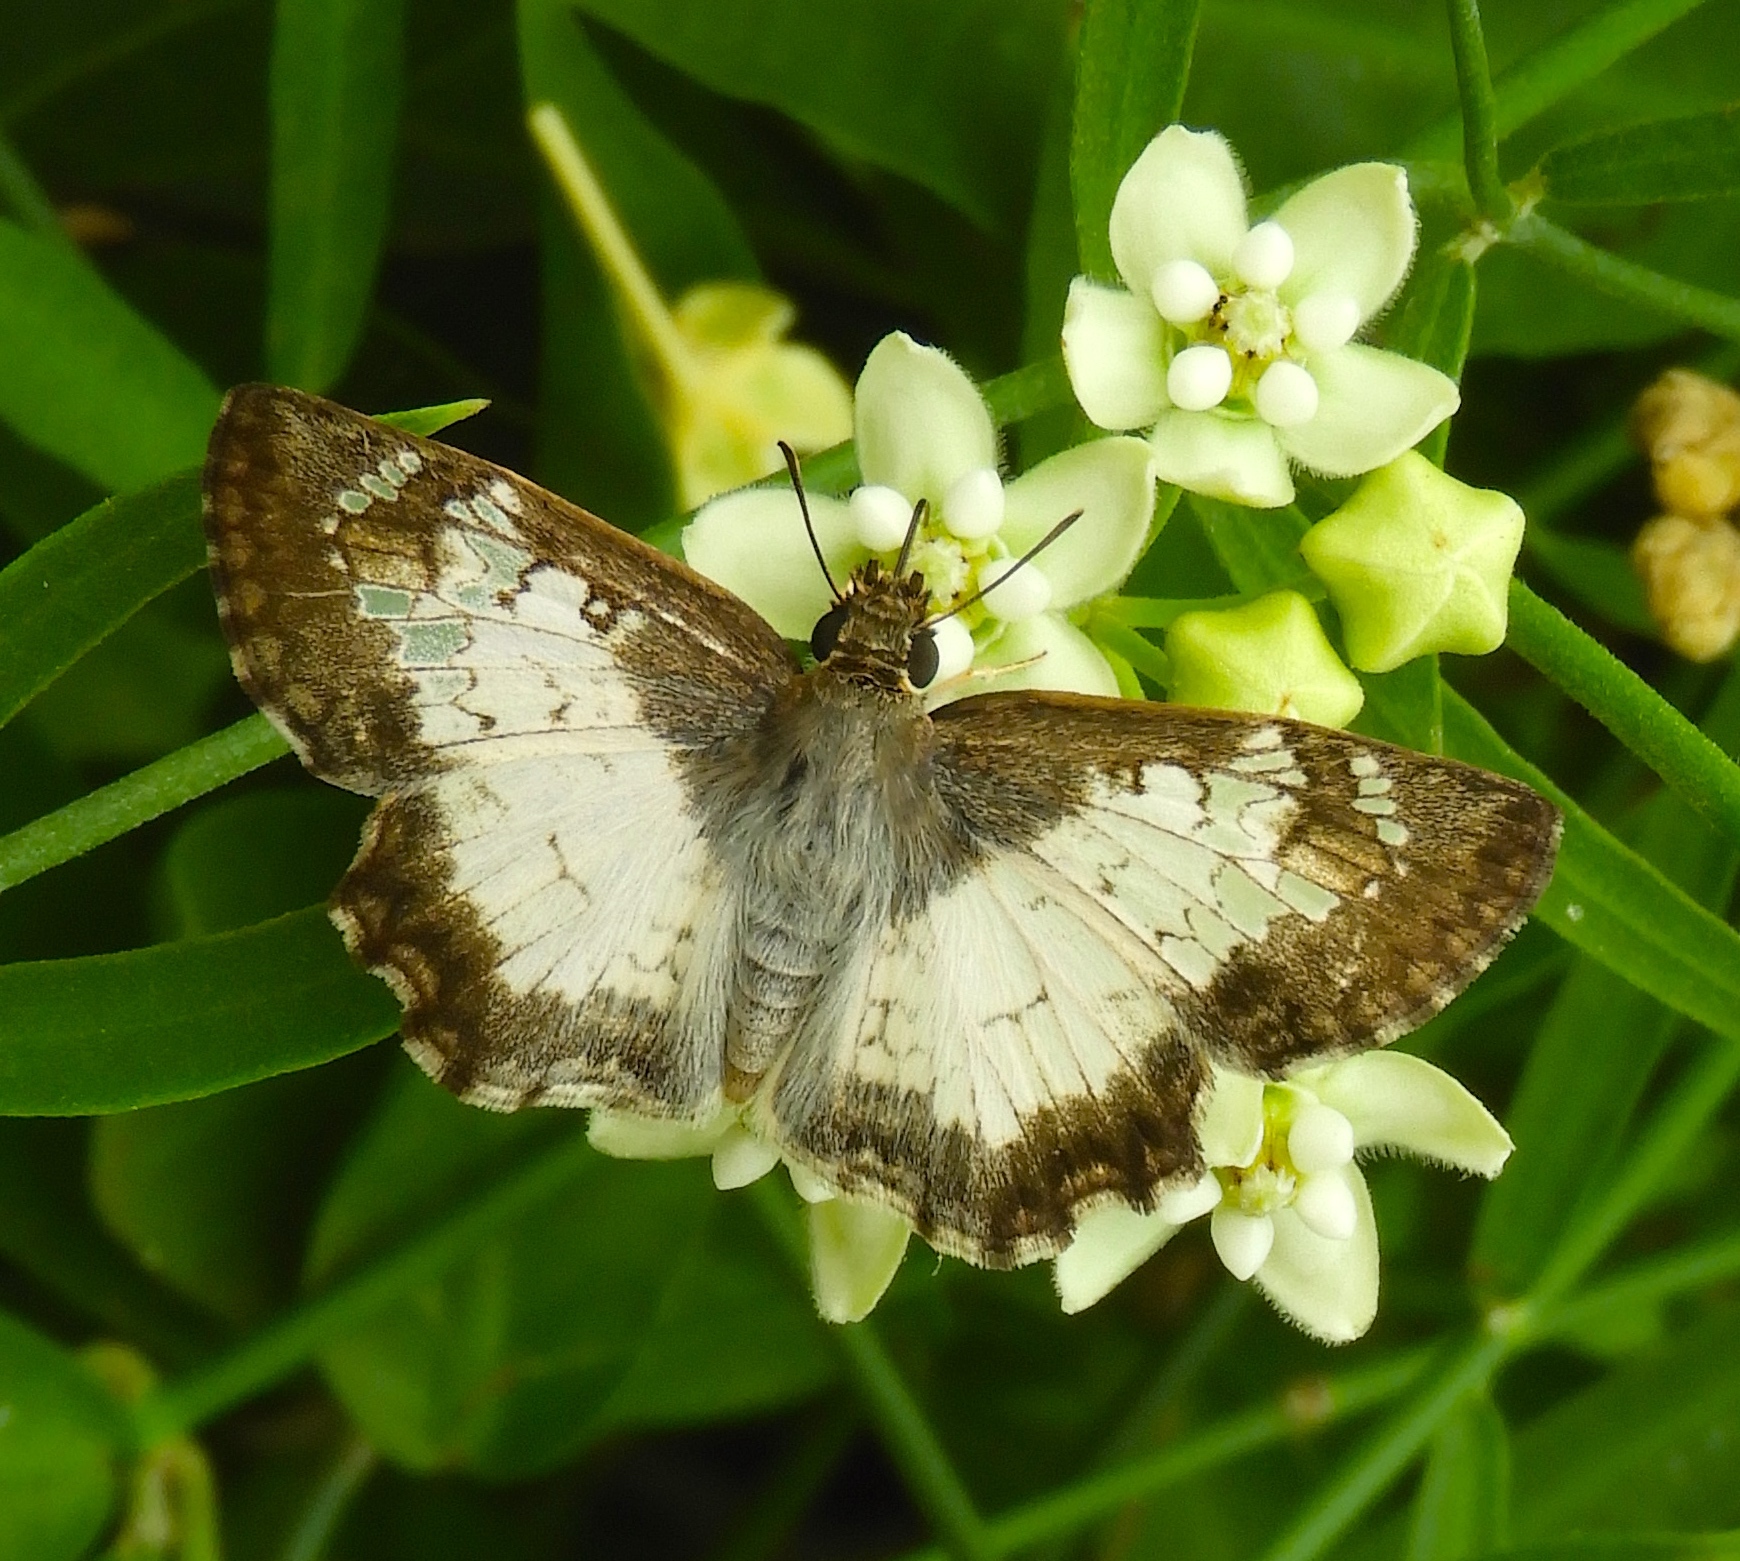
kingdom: Animalia
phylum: Arthropoda
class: Insecta
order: Lepidoptera
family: Hesperiidae
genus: Antigonus
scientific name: Antigonus emorsa
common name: White spurwing
